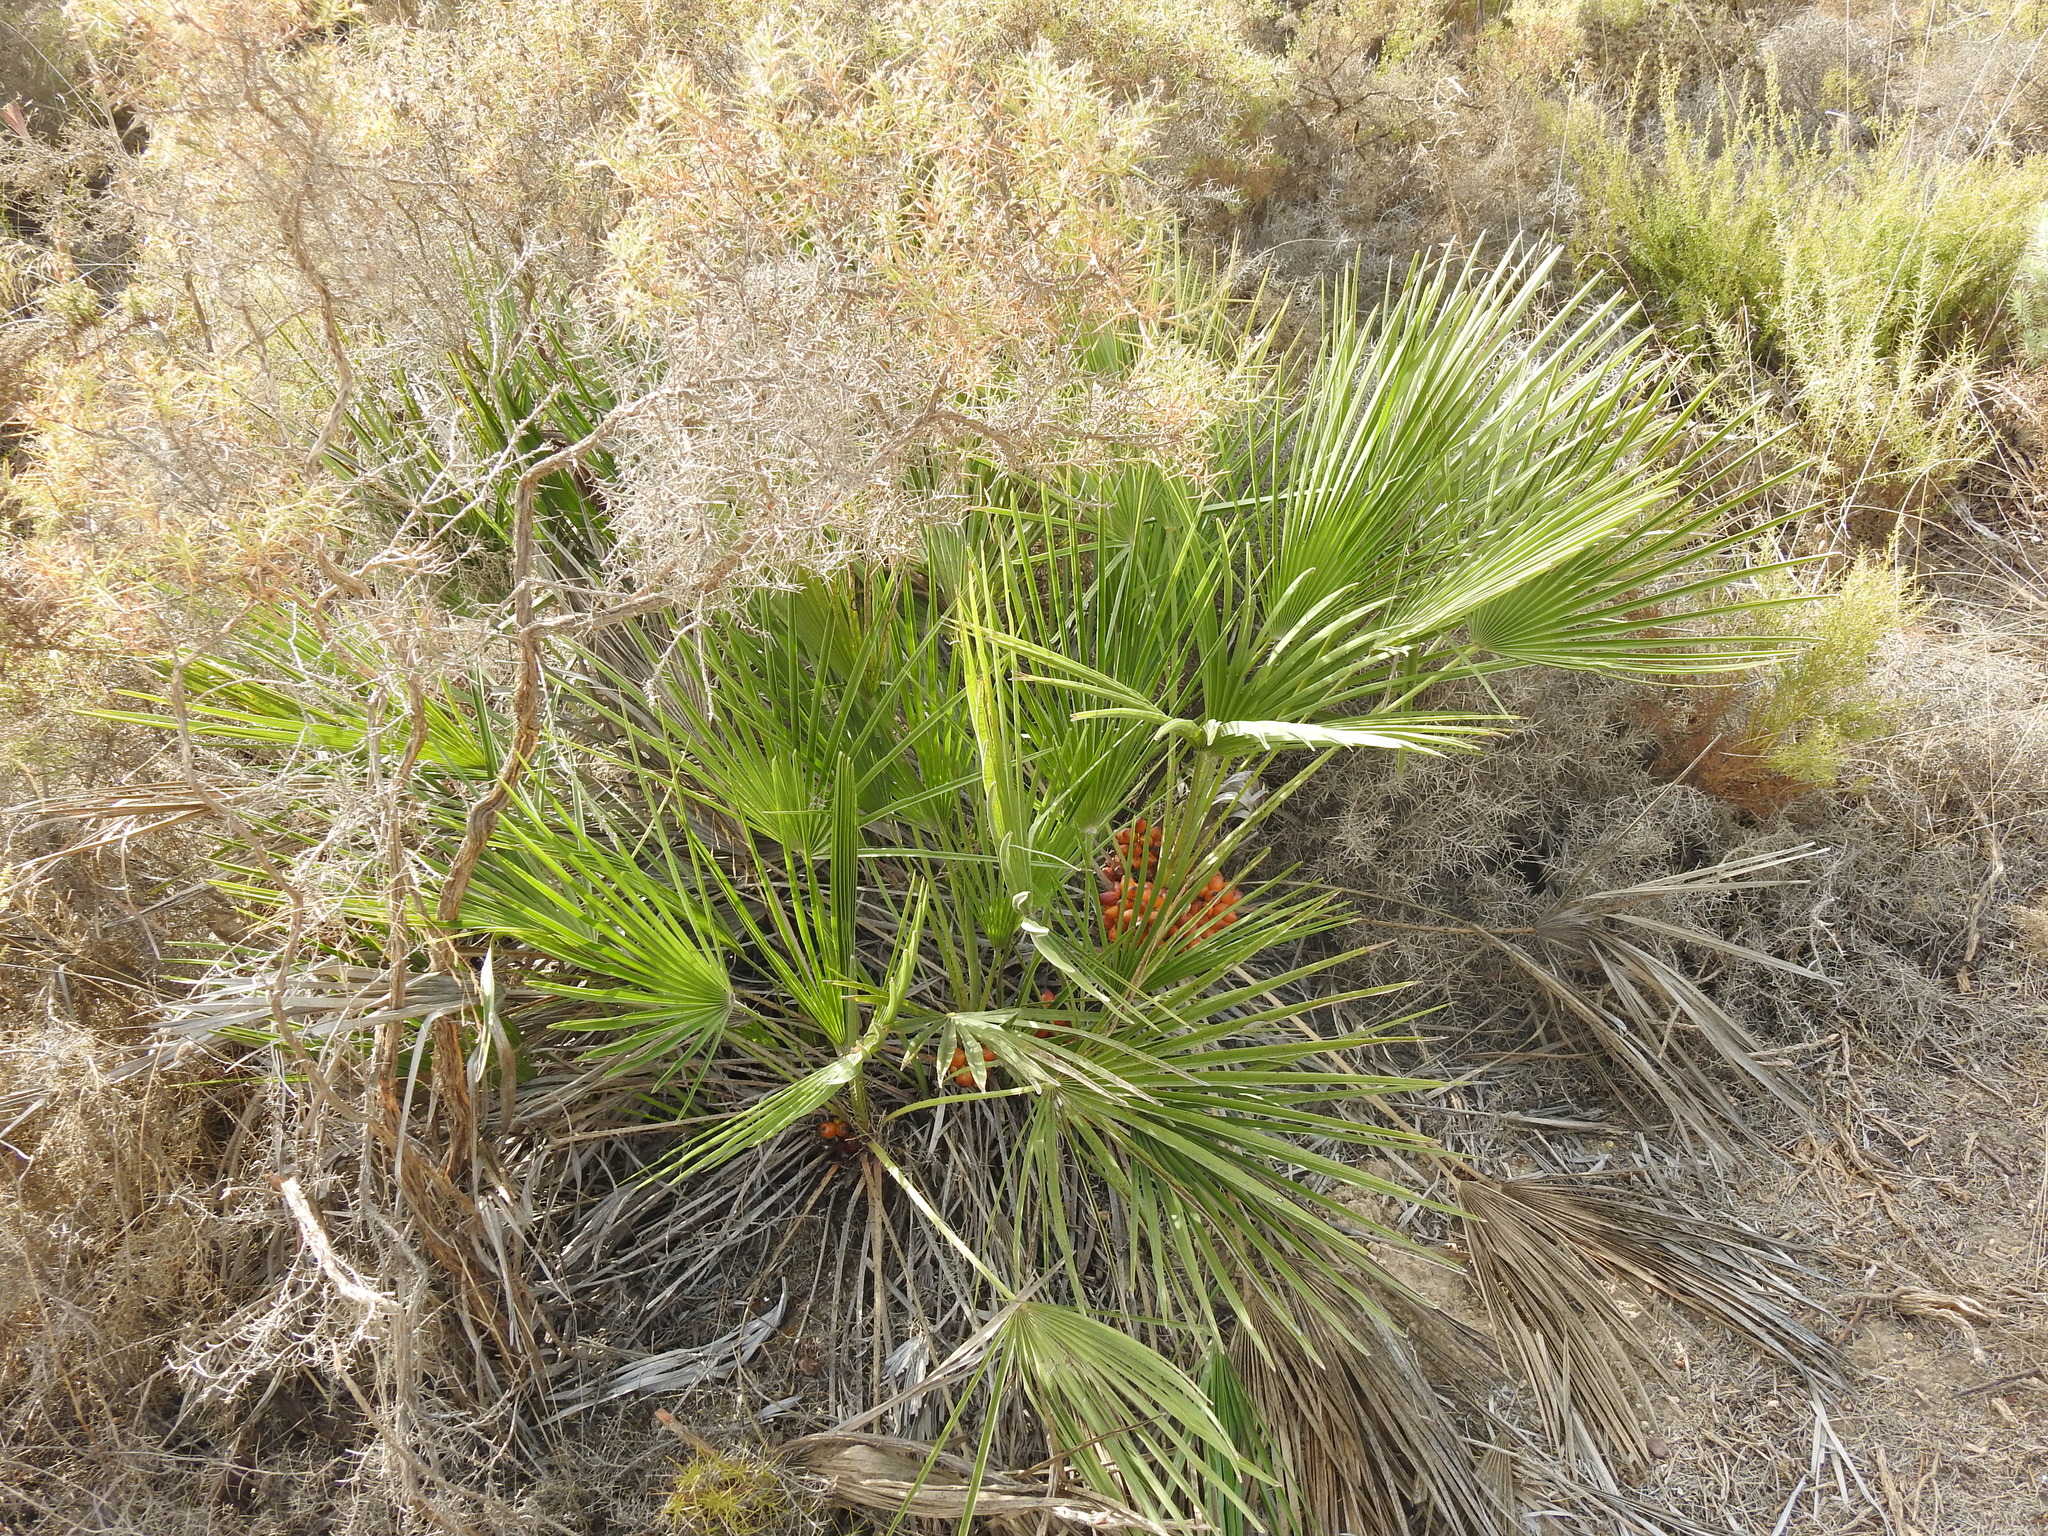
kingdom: Plantae
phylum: Tracheophyta
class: Liliopsida
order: Arecales
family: Arecaceae
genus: Chamaerops
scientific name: Chamaerops humilis
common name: Dwarf fan palm
